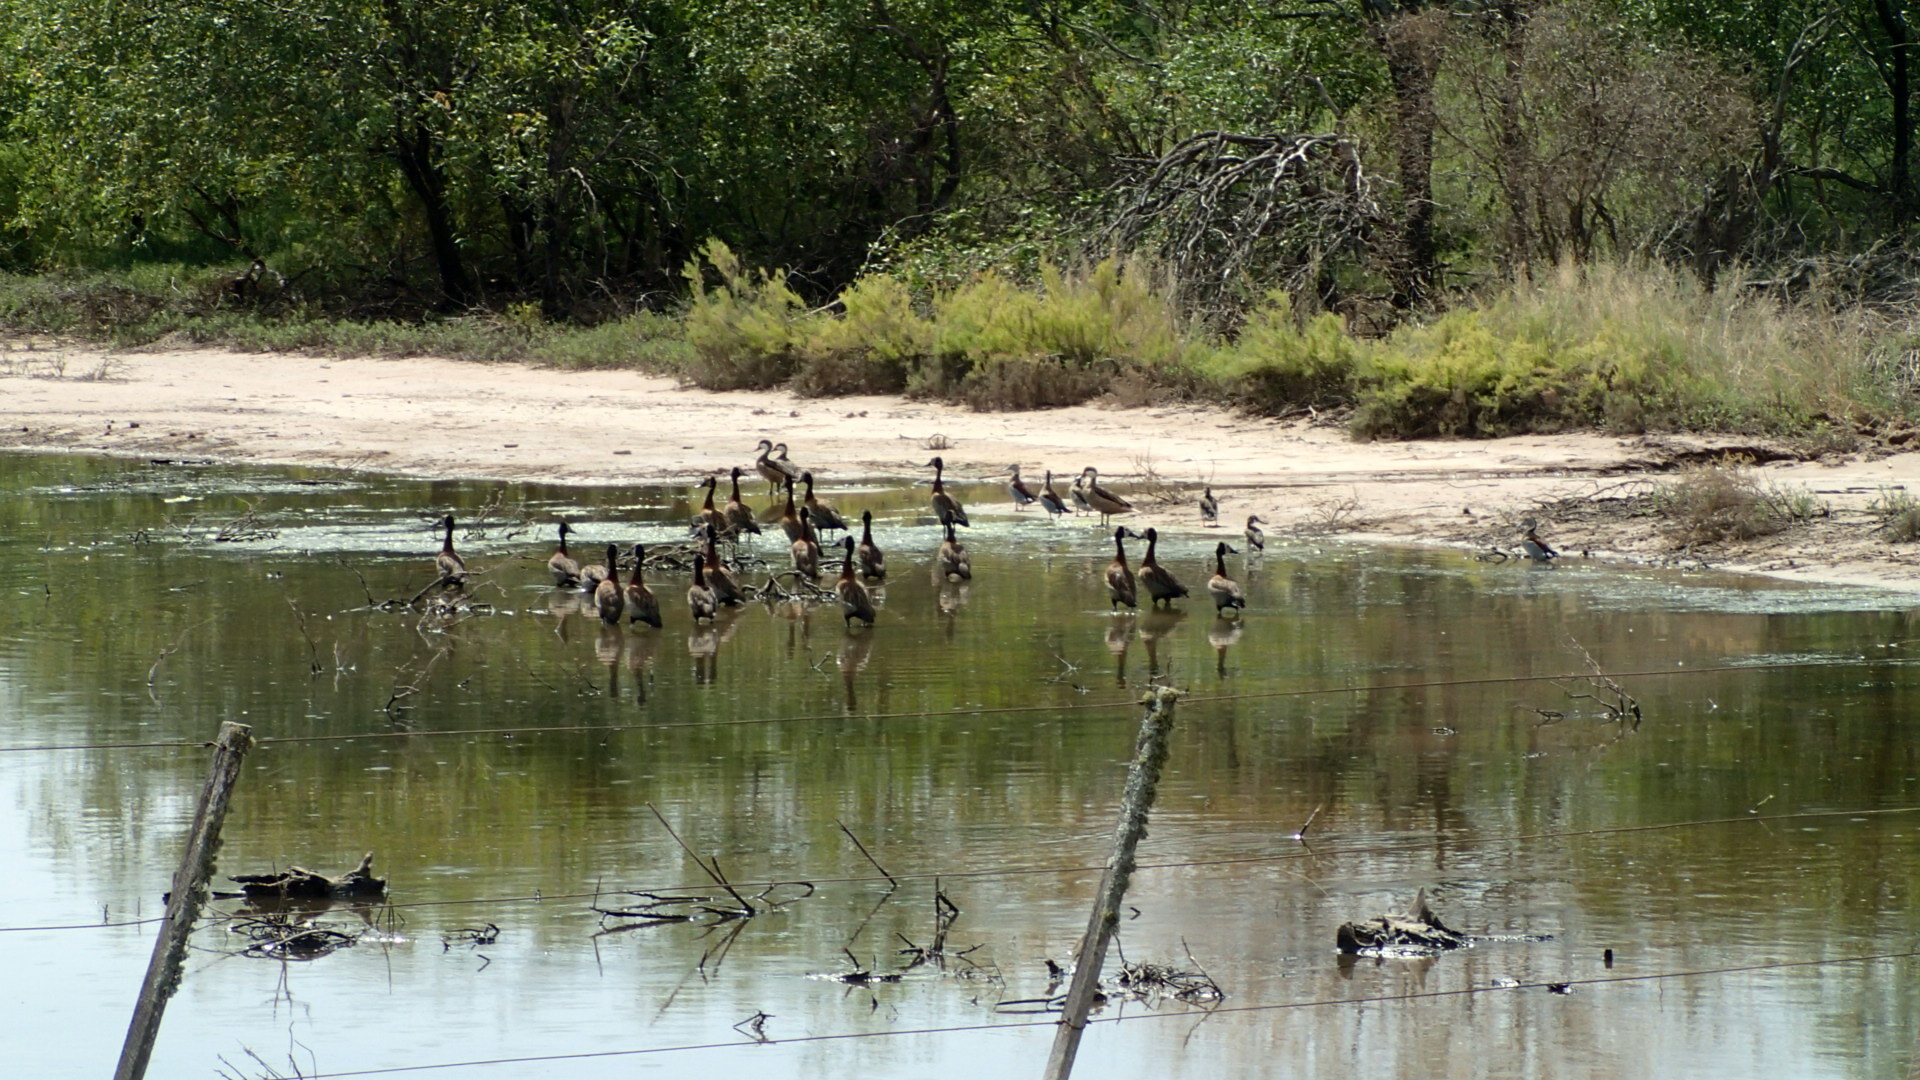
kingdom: Animalia
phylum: Chordata
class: Aves
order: Anseriformes
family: Anatidae
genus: Amazonetta
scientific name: Amazonetta brasiliensis
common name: Brazilian teal
